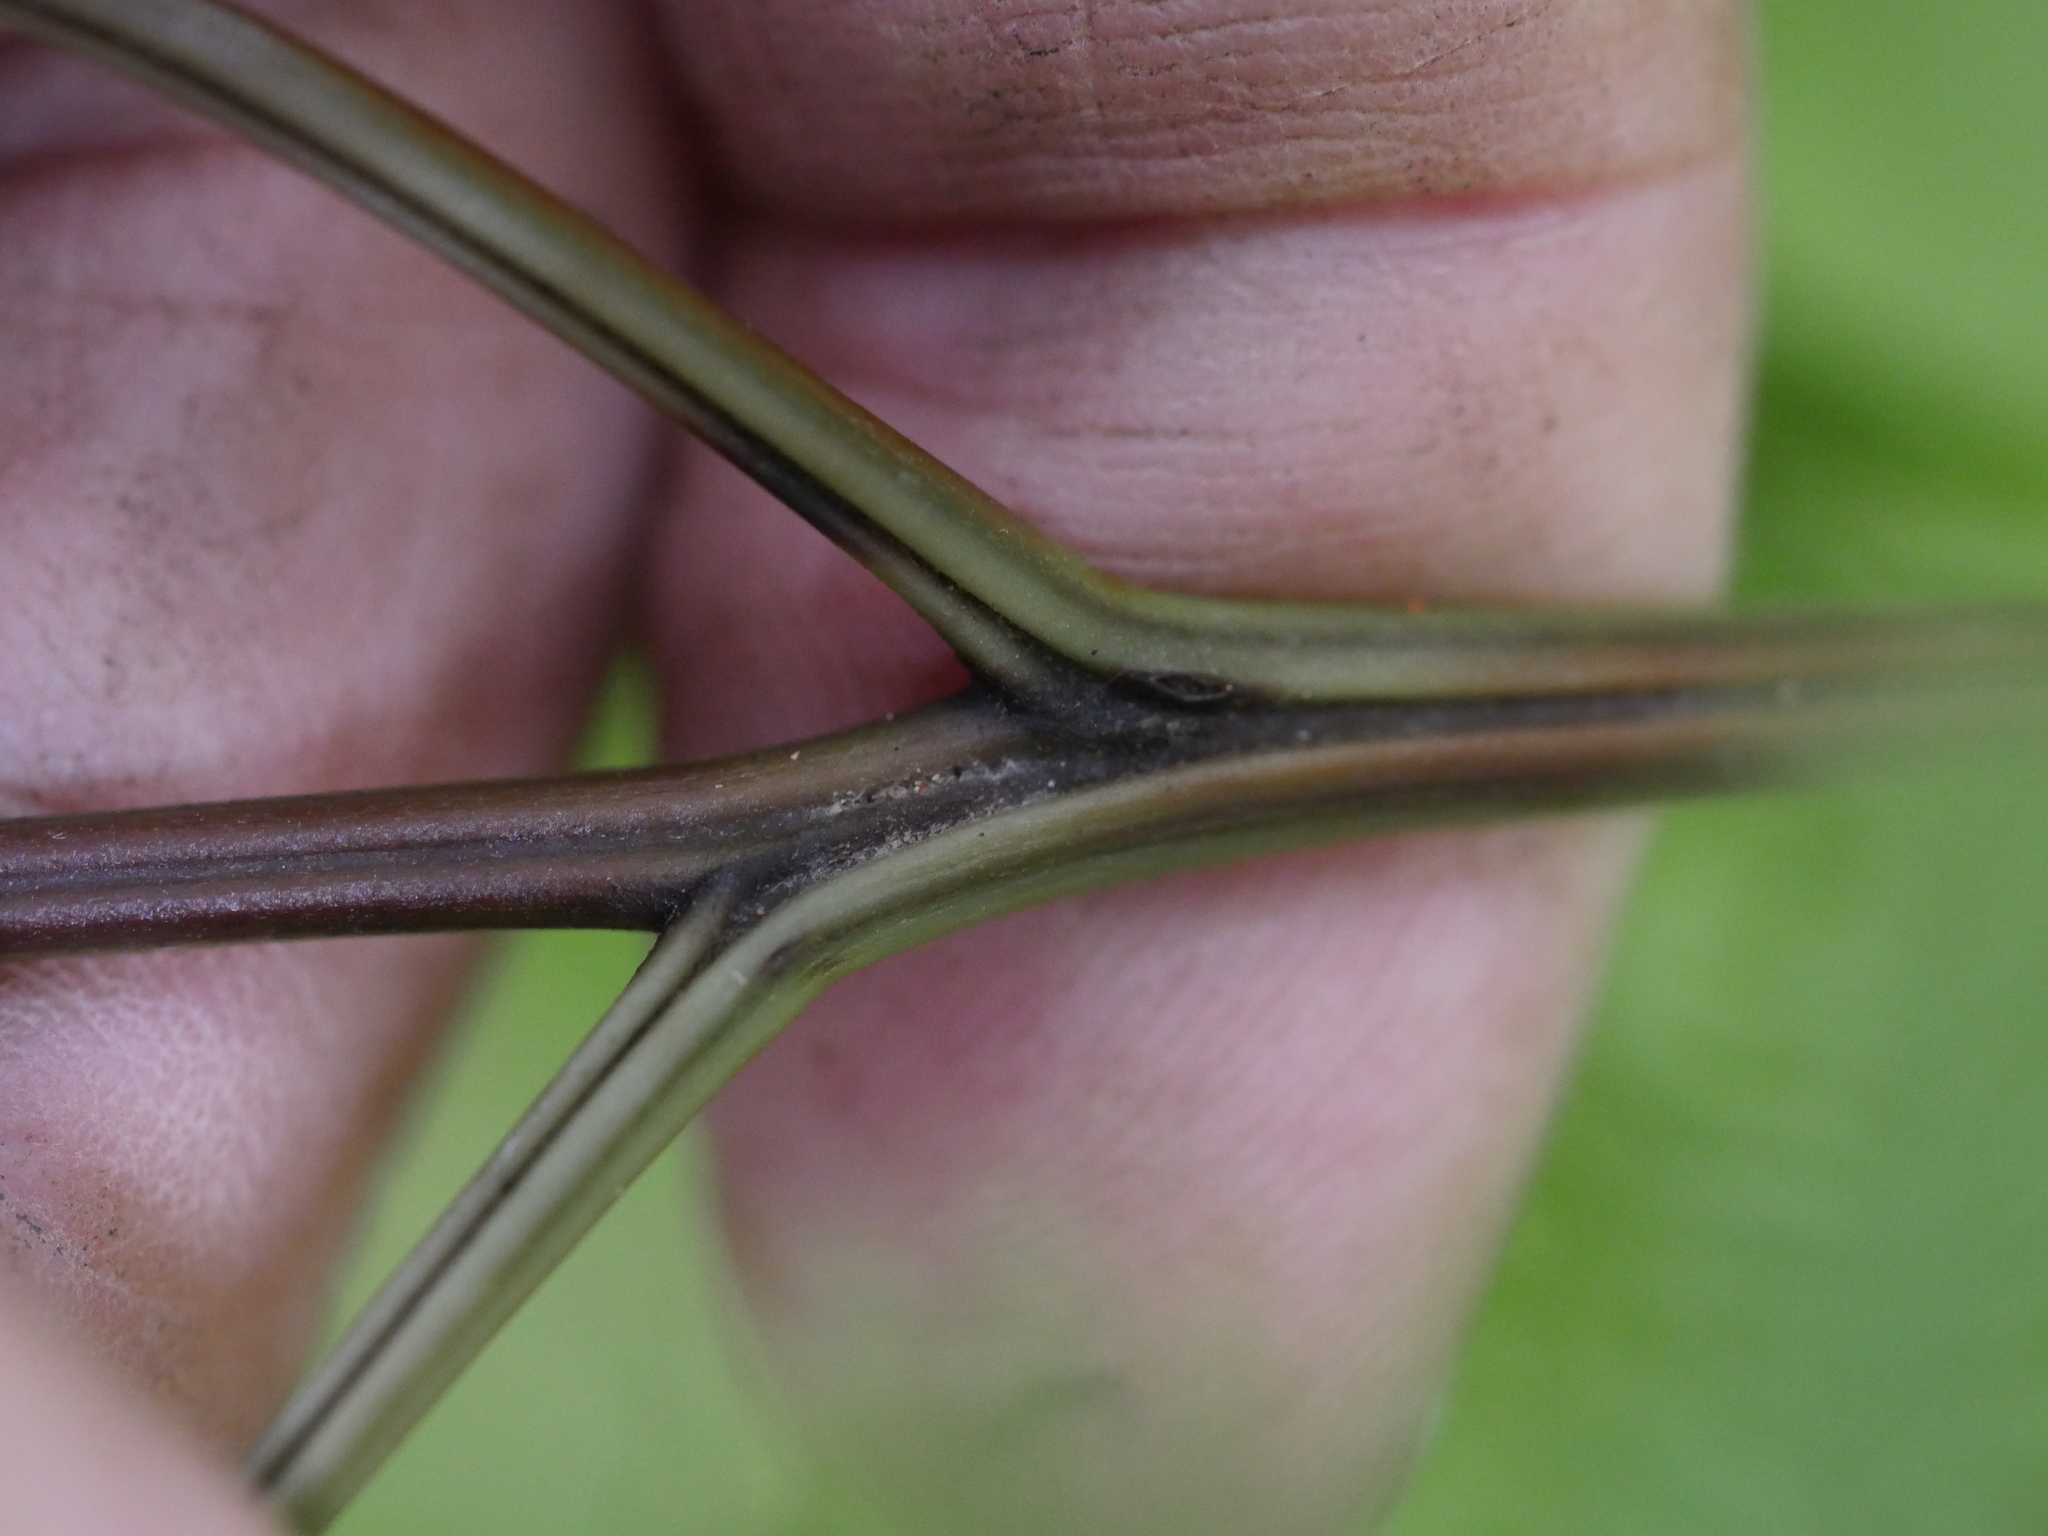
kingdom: Plantae
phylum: Tracheophyta
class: Polypodiopsida
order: Polypodiales
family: Pteridaceae
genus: Pteris
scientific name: Pteris macilenta
